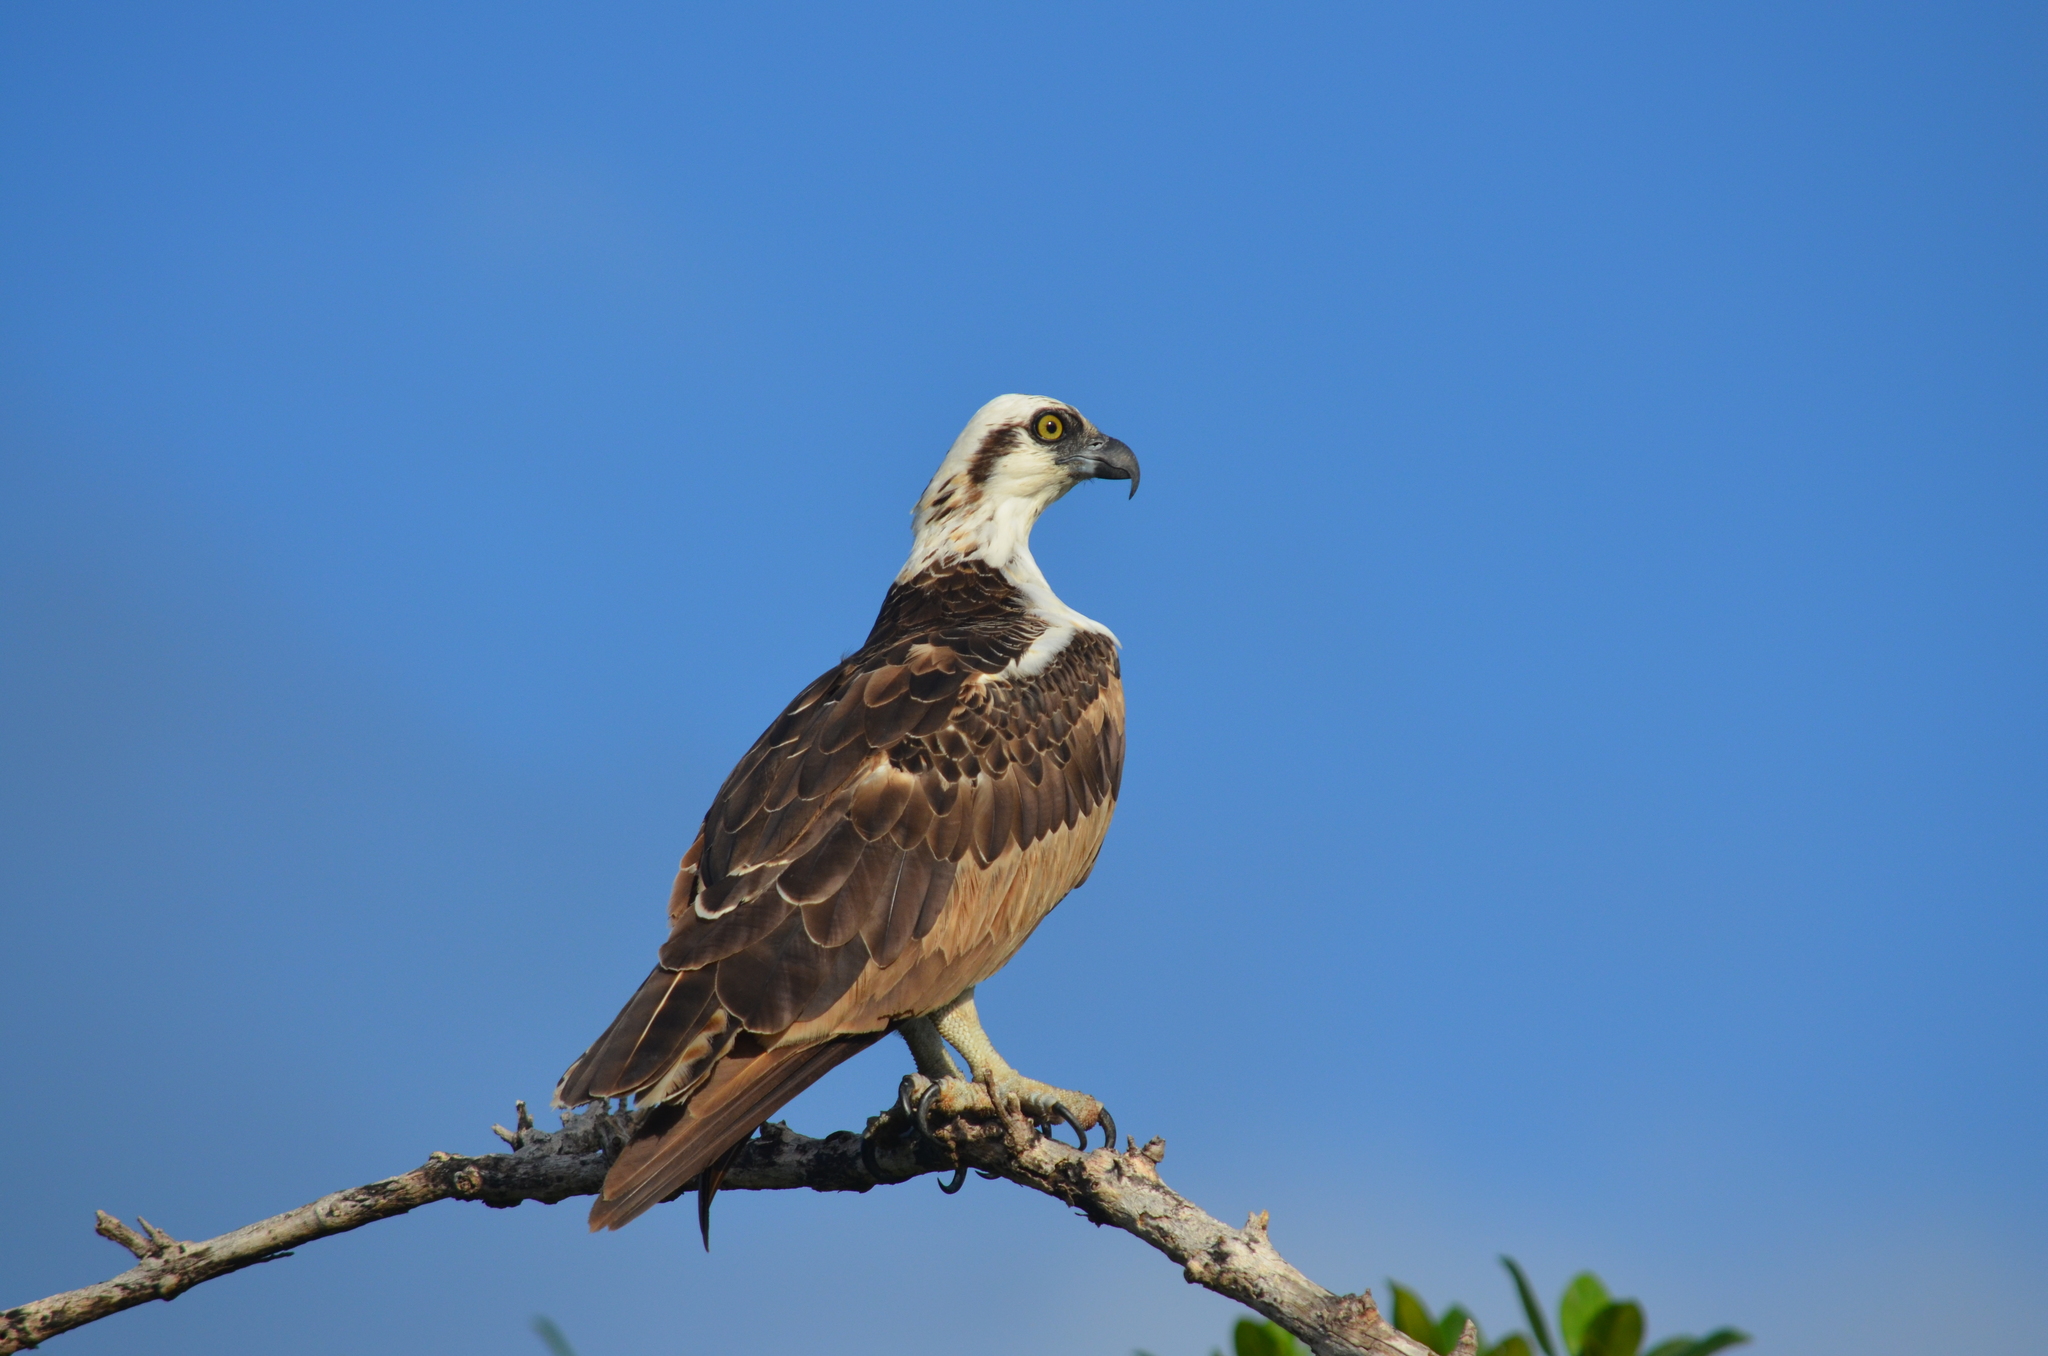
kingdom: Animalia
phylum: Chordata
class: Aves
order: Accipitriformes
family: Pandionidae
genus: Pandion
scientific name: Pandion haliaetus
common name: Osprey
